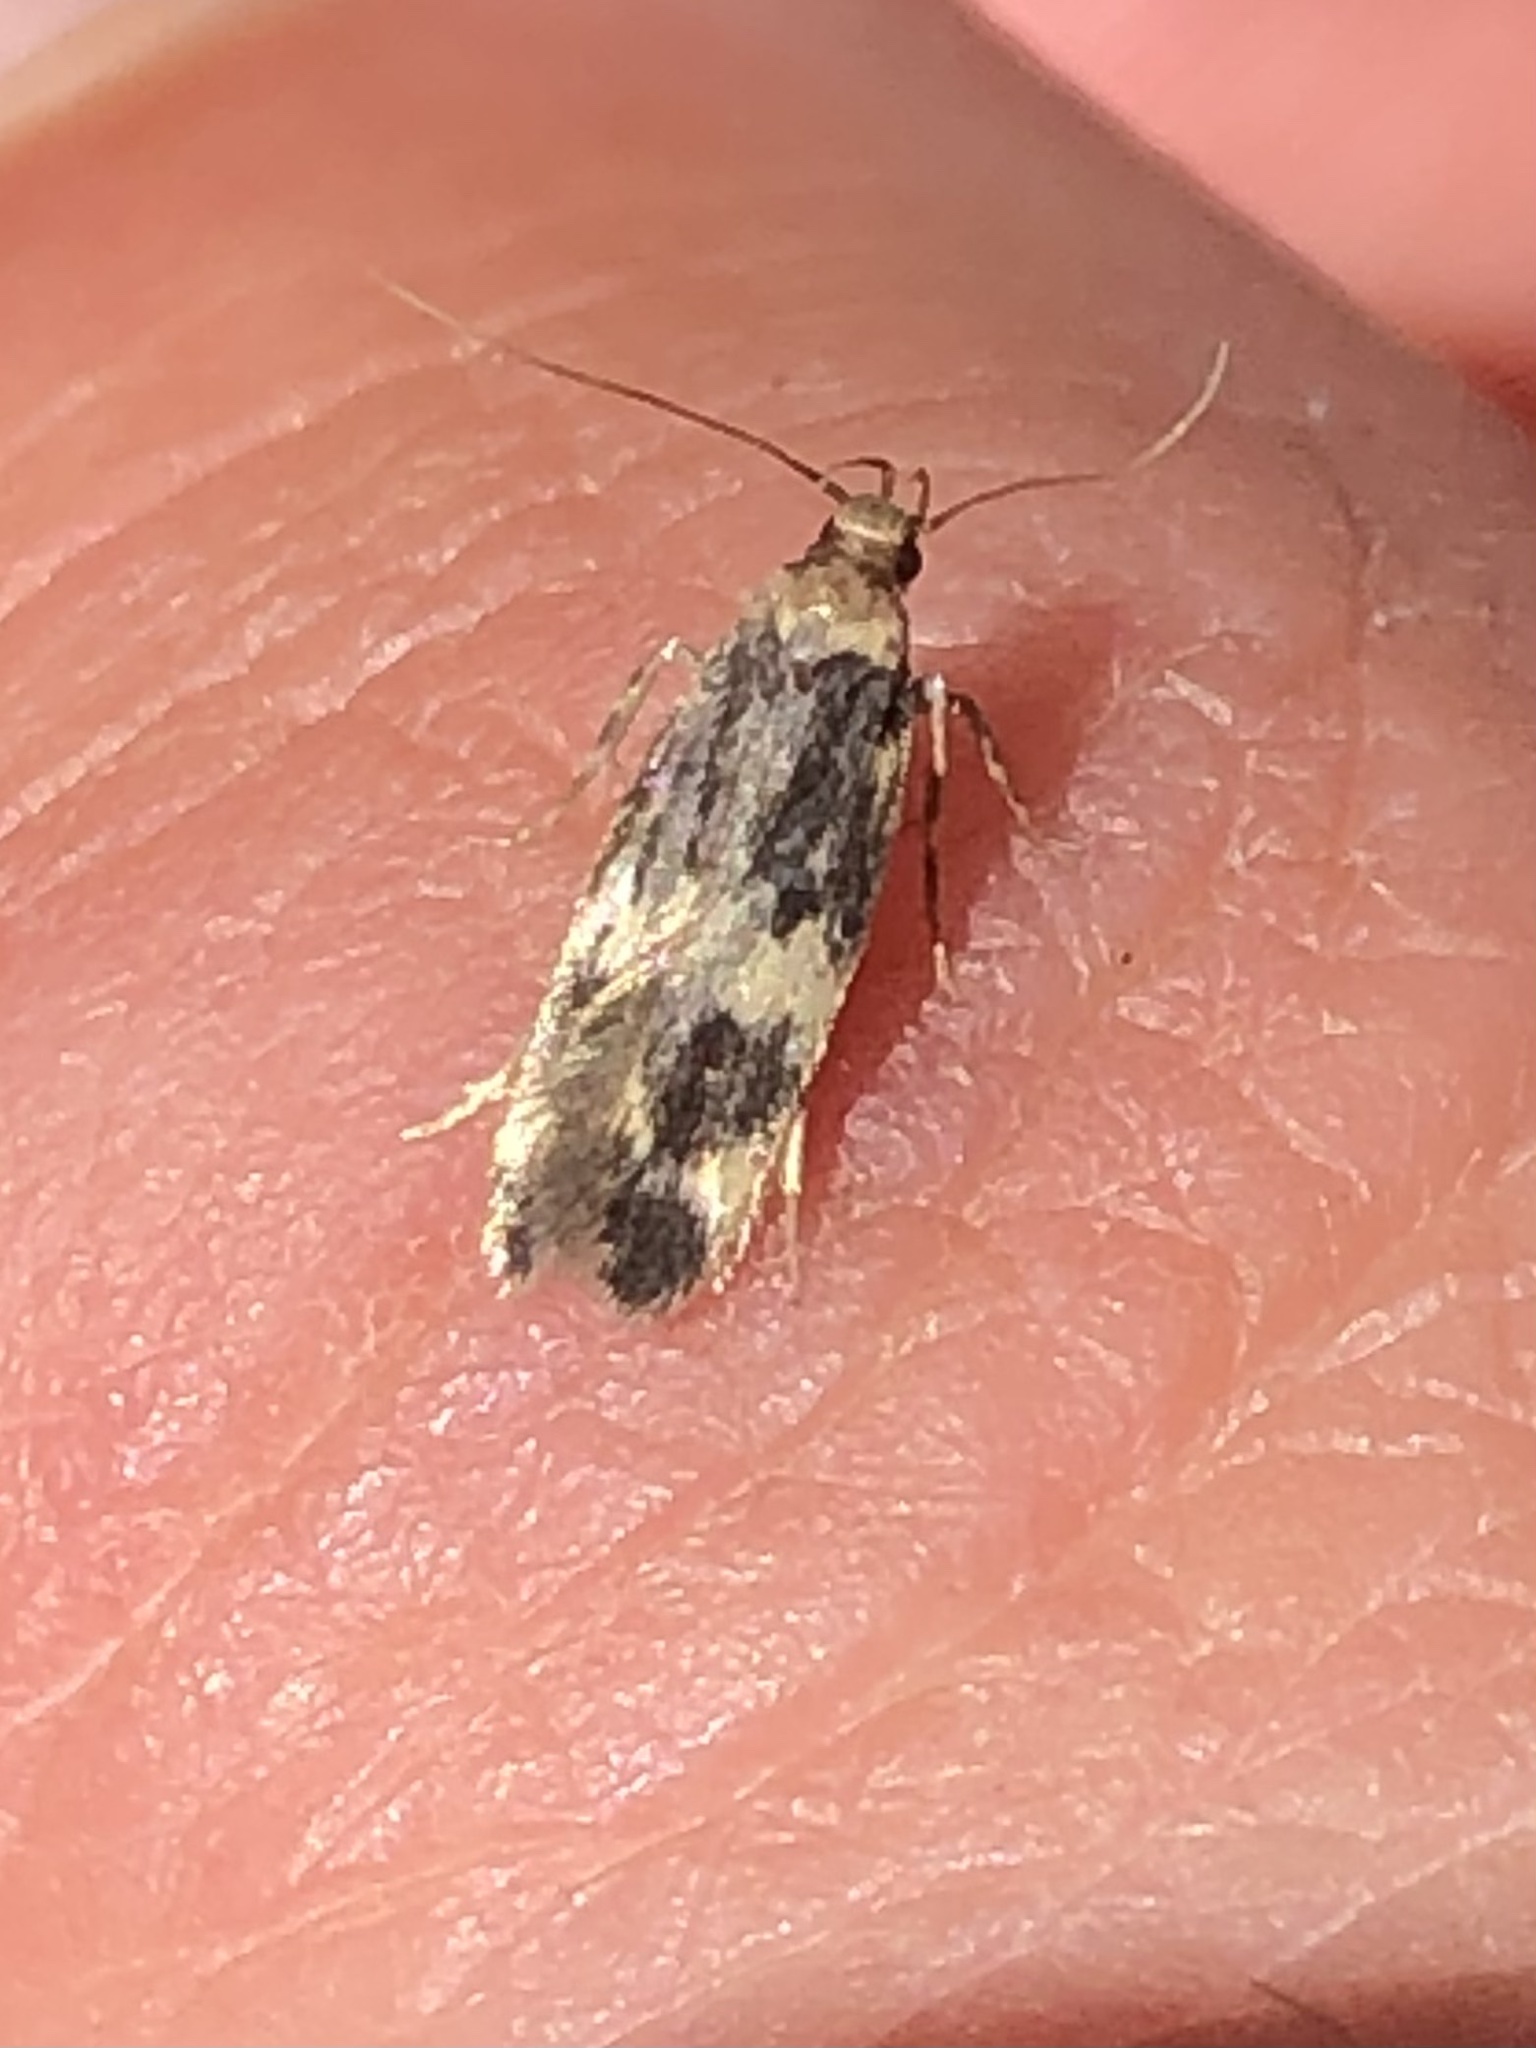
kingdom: Animalia
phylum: Arthropoda
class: Insecta
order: Lepidoptera
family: Autostichidae
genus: Oegoconia
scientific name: Oegoconia quadripuncta
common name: Four-spotted obscure
